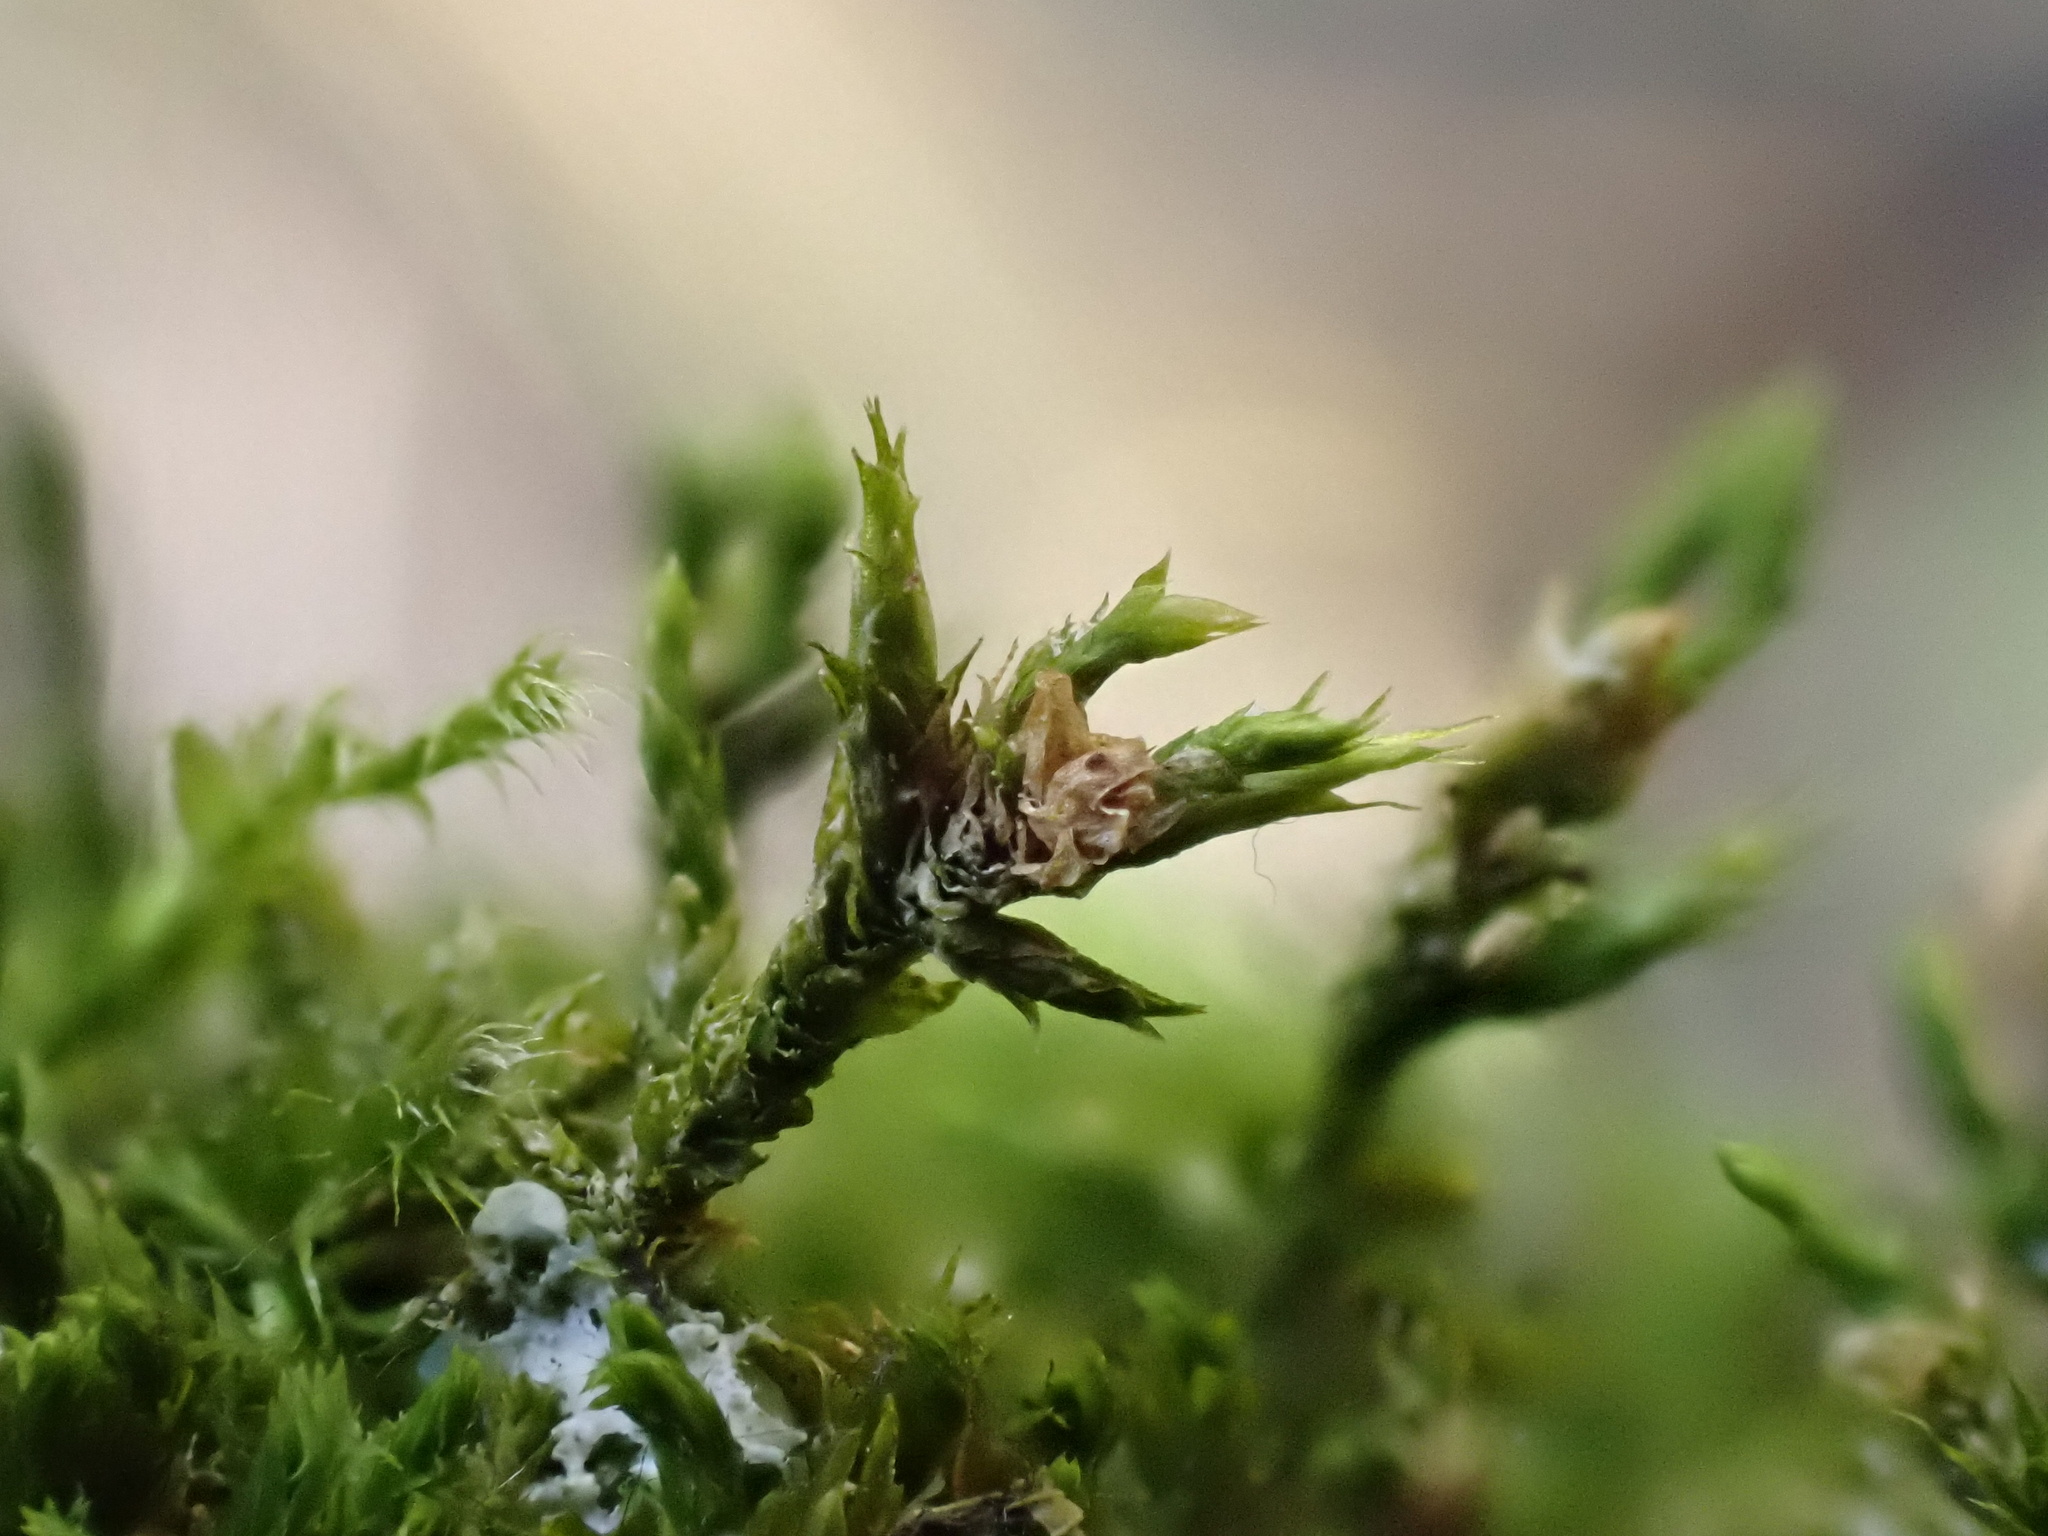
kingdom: Plantae
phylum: Bryophyta
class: Bryopsida
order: Hypnales
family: Cryphaeaceae
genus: Cryphaea
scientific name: Cryphaea heteromalla
